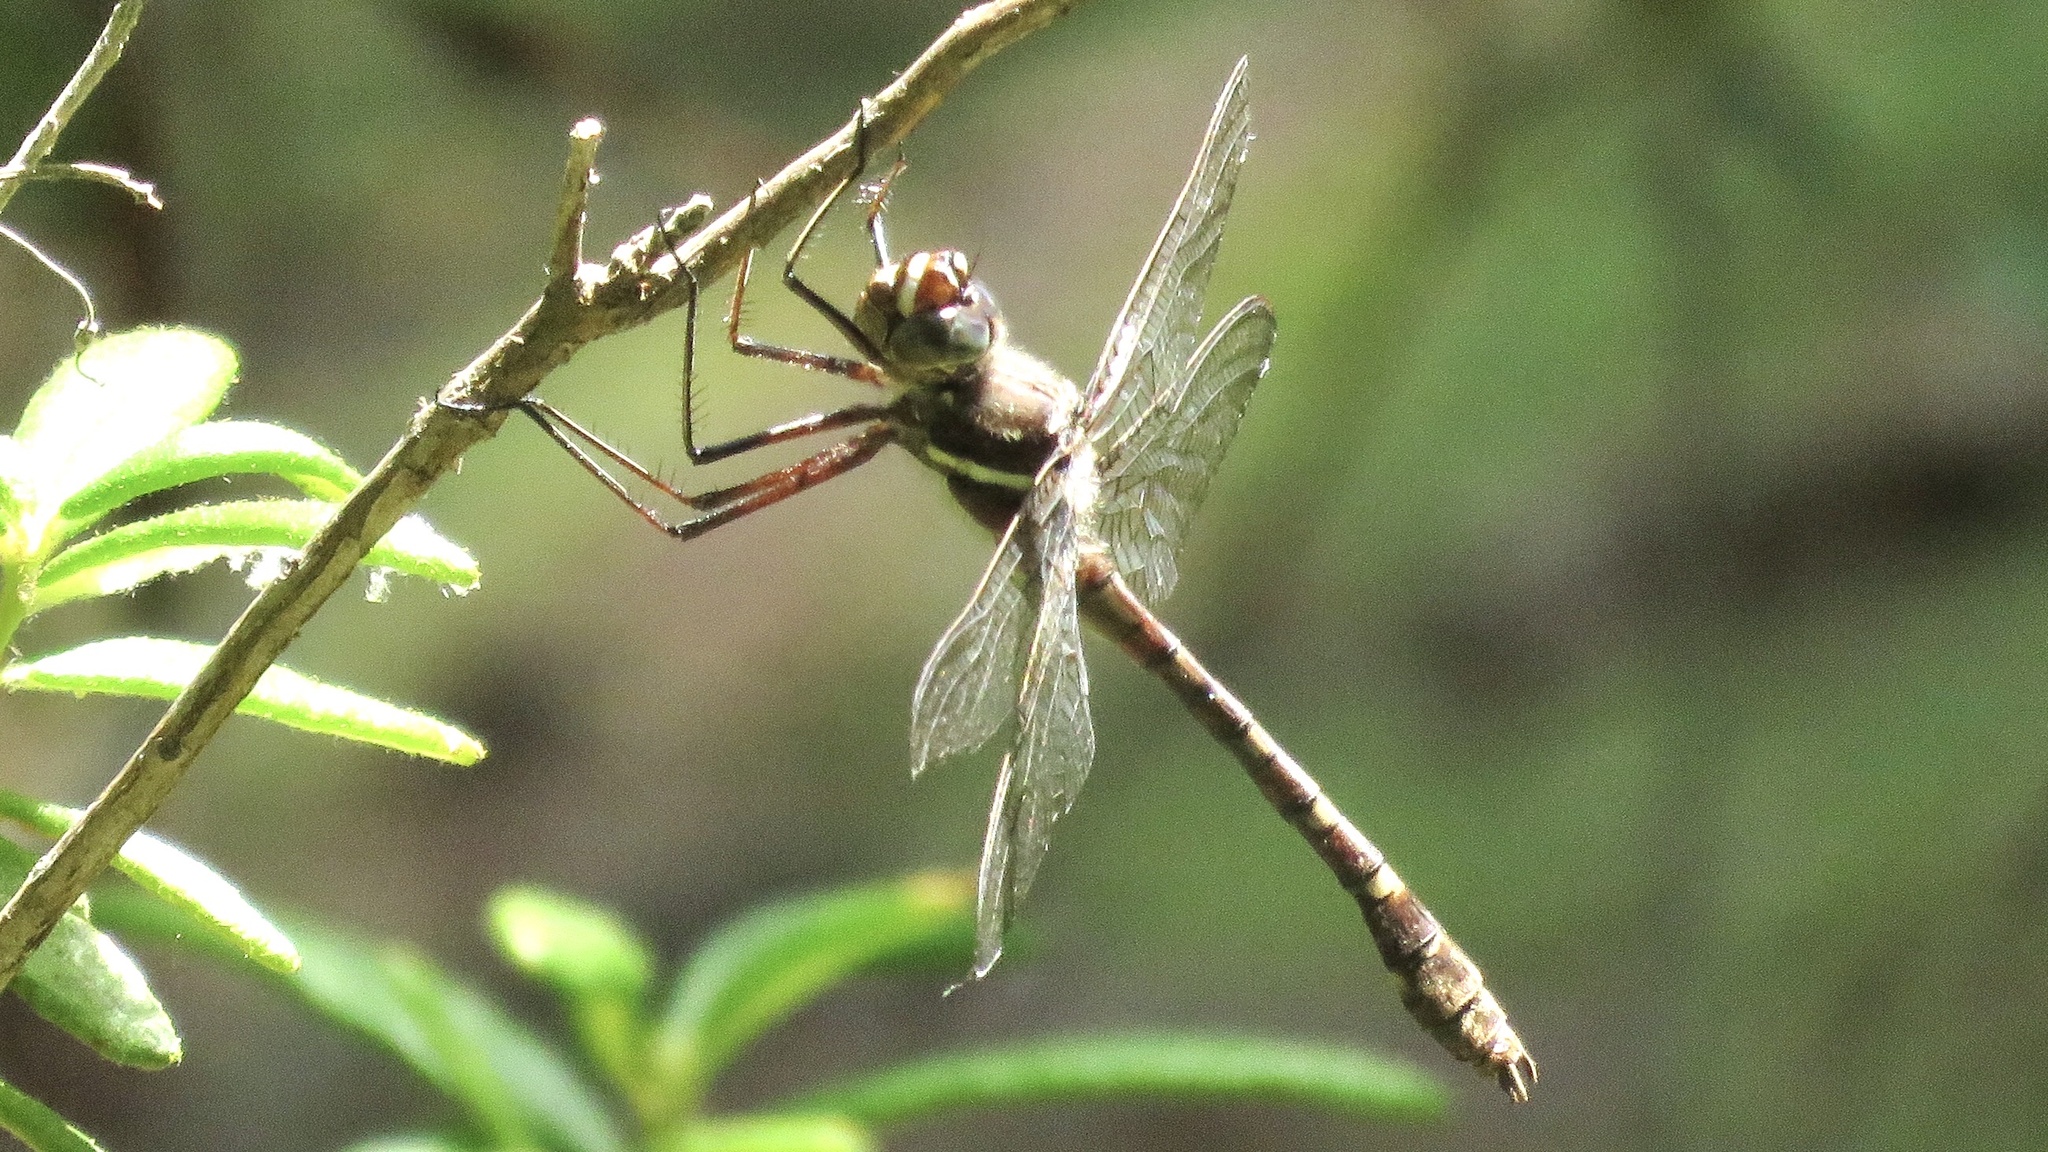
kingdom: Animalia
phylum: Arthropoda
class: Insecta
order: Odonata
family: Macromiidae
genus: Didymops
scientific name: Didymops transversa
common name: Stream cruiser
